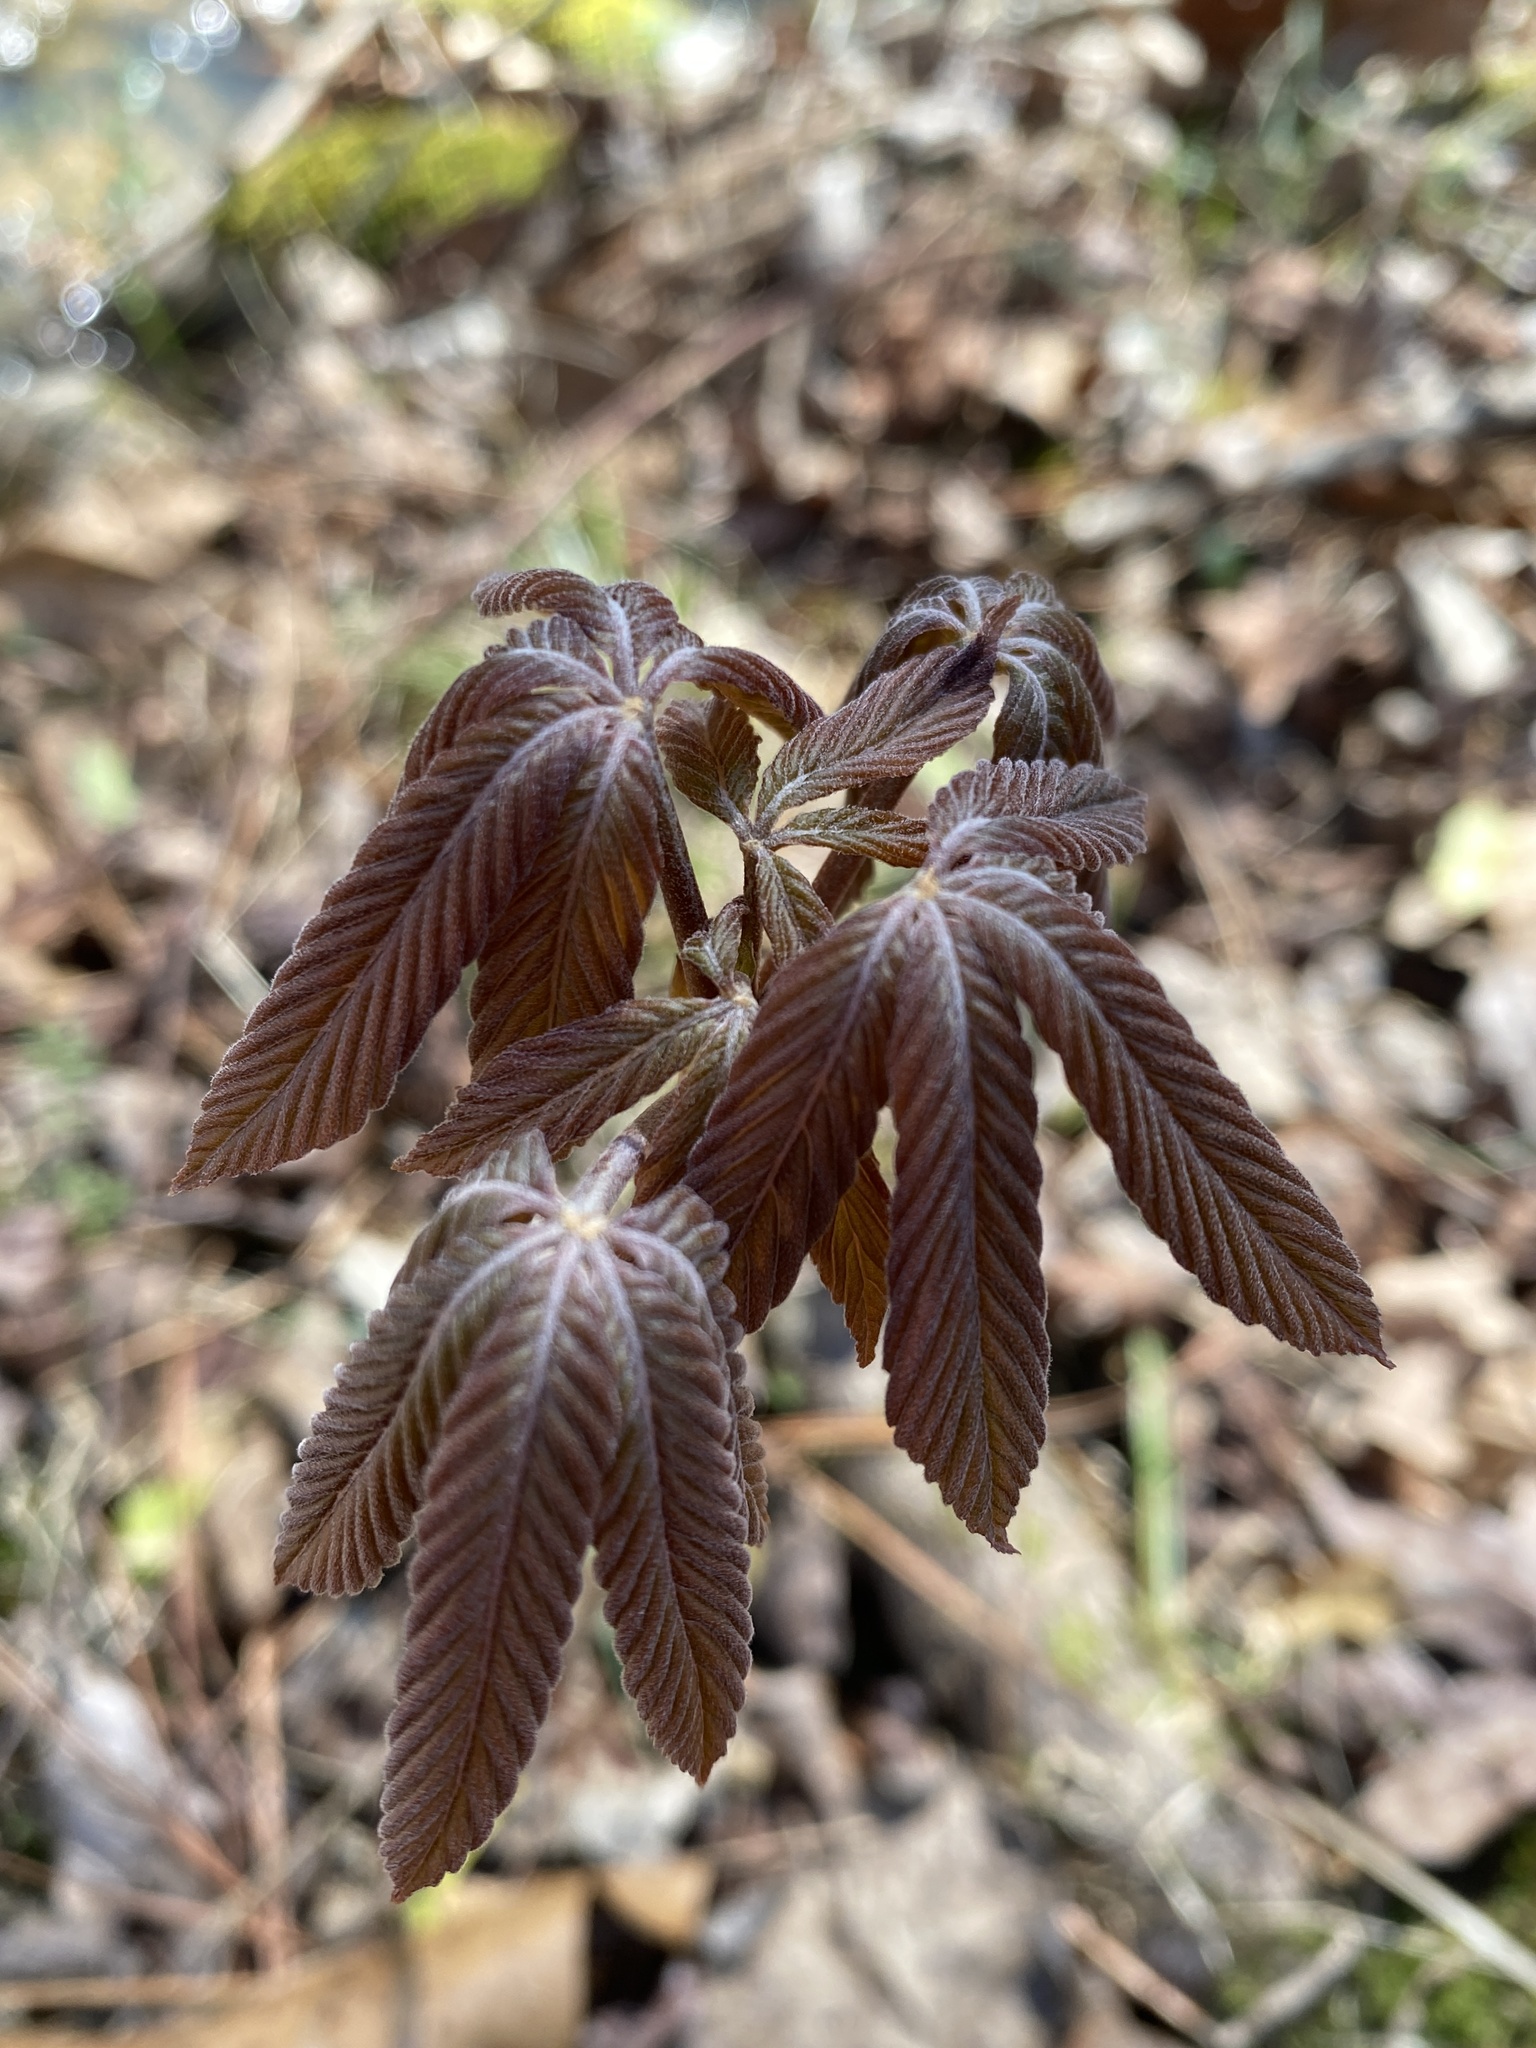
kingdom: Plantae
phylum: Tracheophyta
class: Magnoliopsida
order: Sapindales
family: Sapindaceae
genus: Aesculus
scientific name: Aesculus sylvatica
